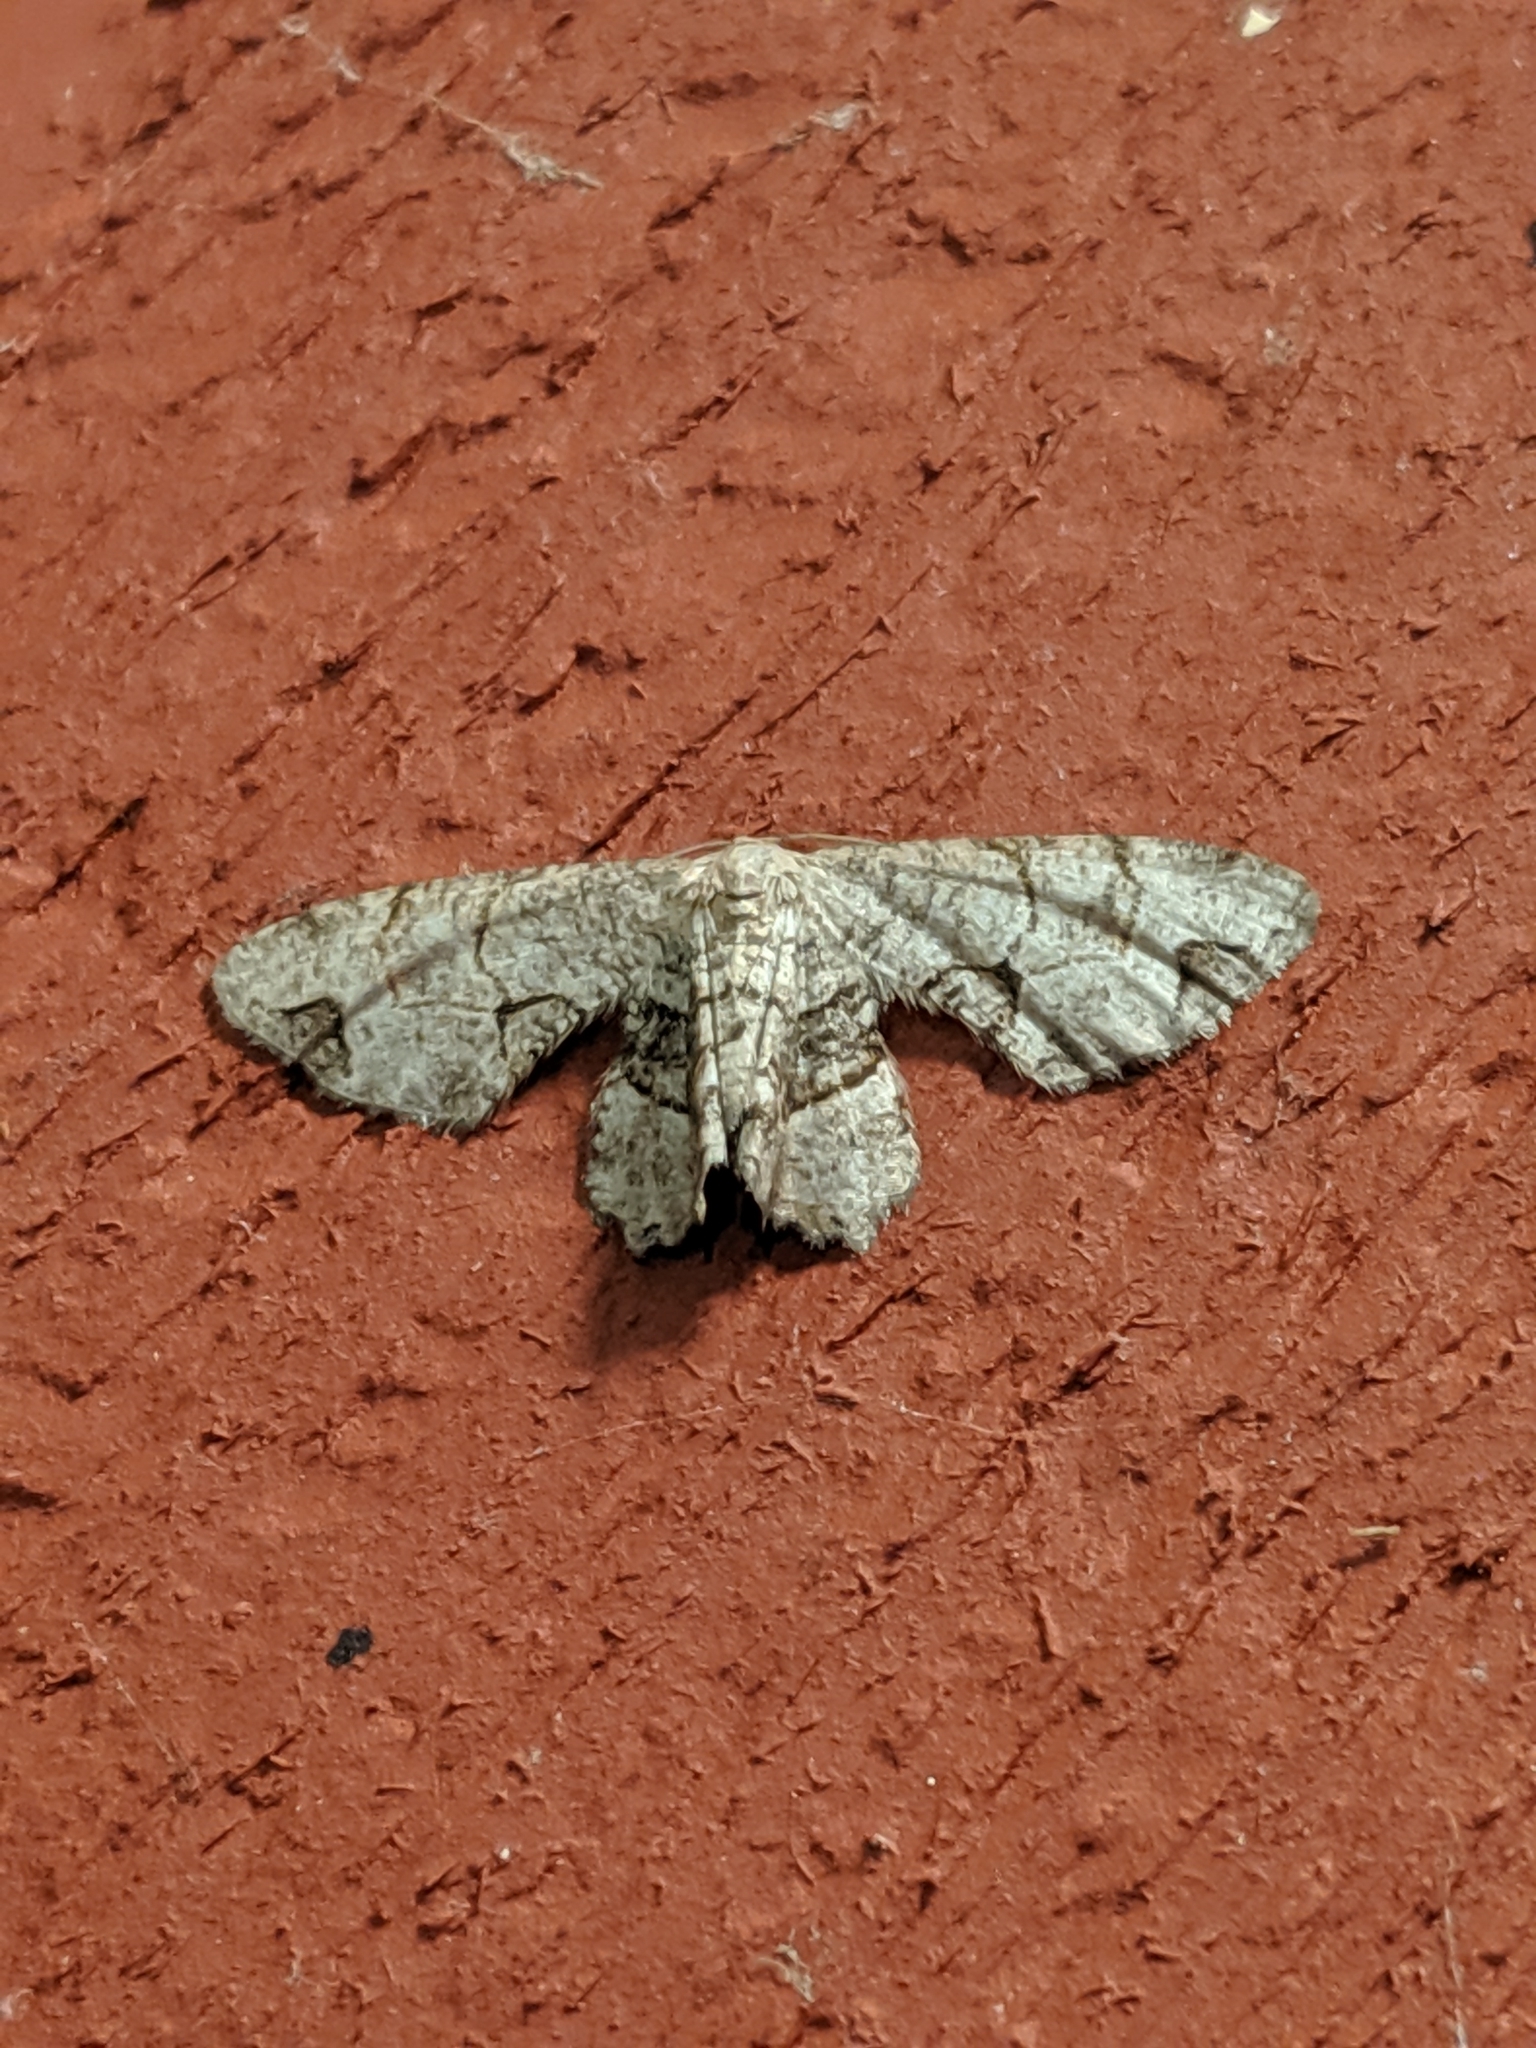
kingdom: Animalia
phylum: Arthropoda
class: Insecta
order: Lepidoptera
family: Uraniidae
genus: Epiplema
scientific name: Epiplema Callizzia amorata
